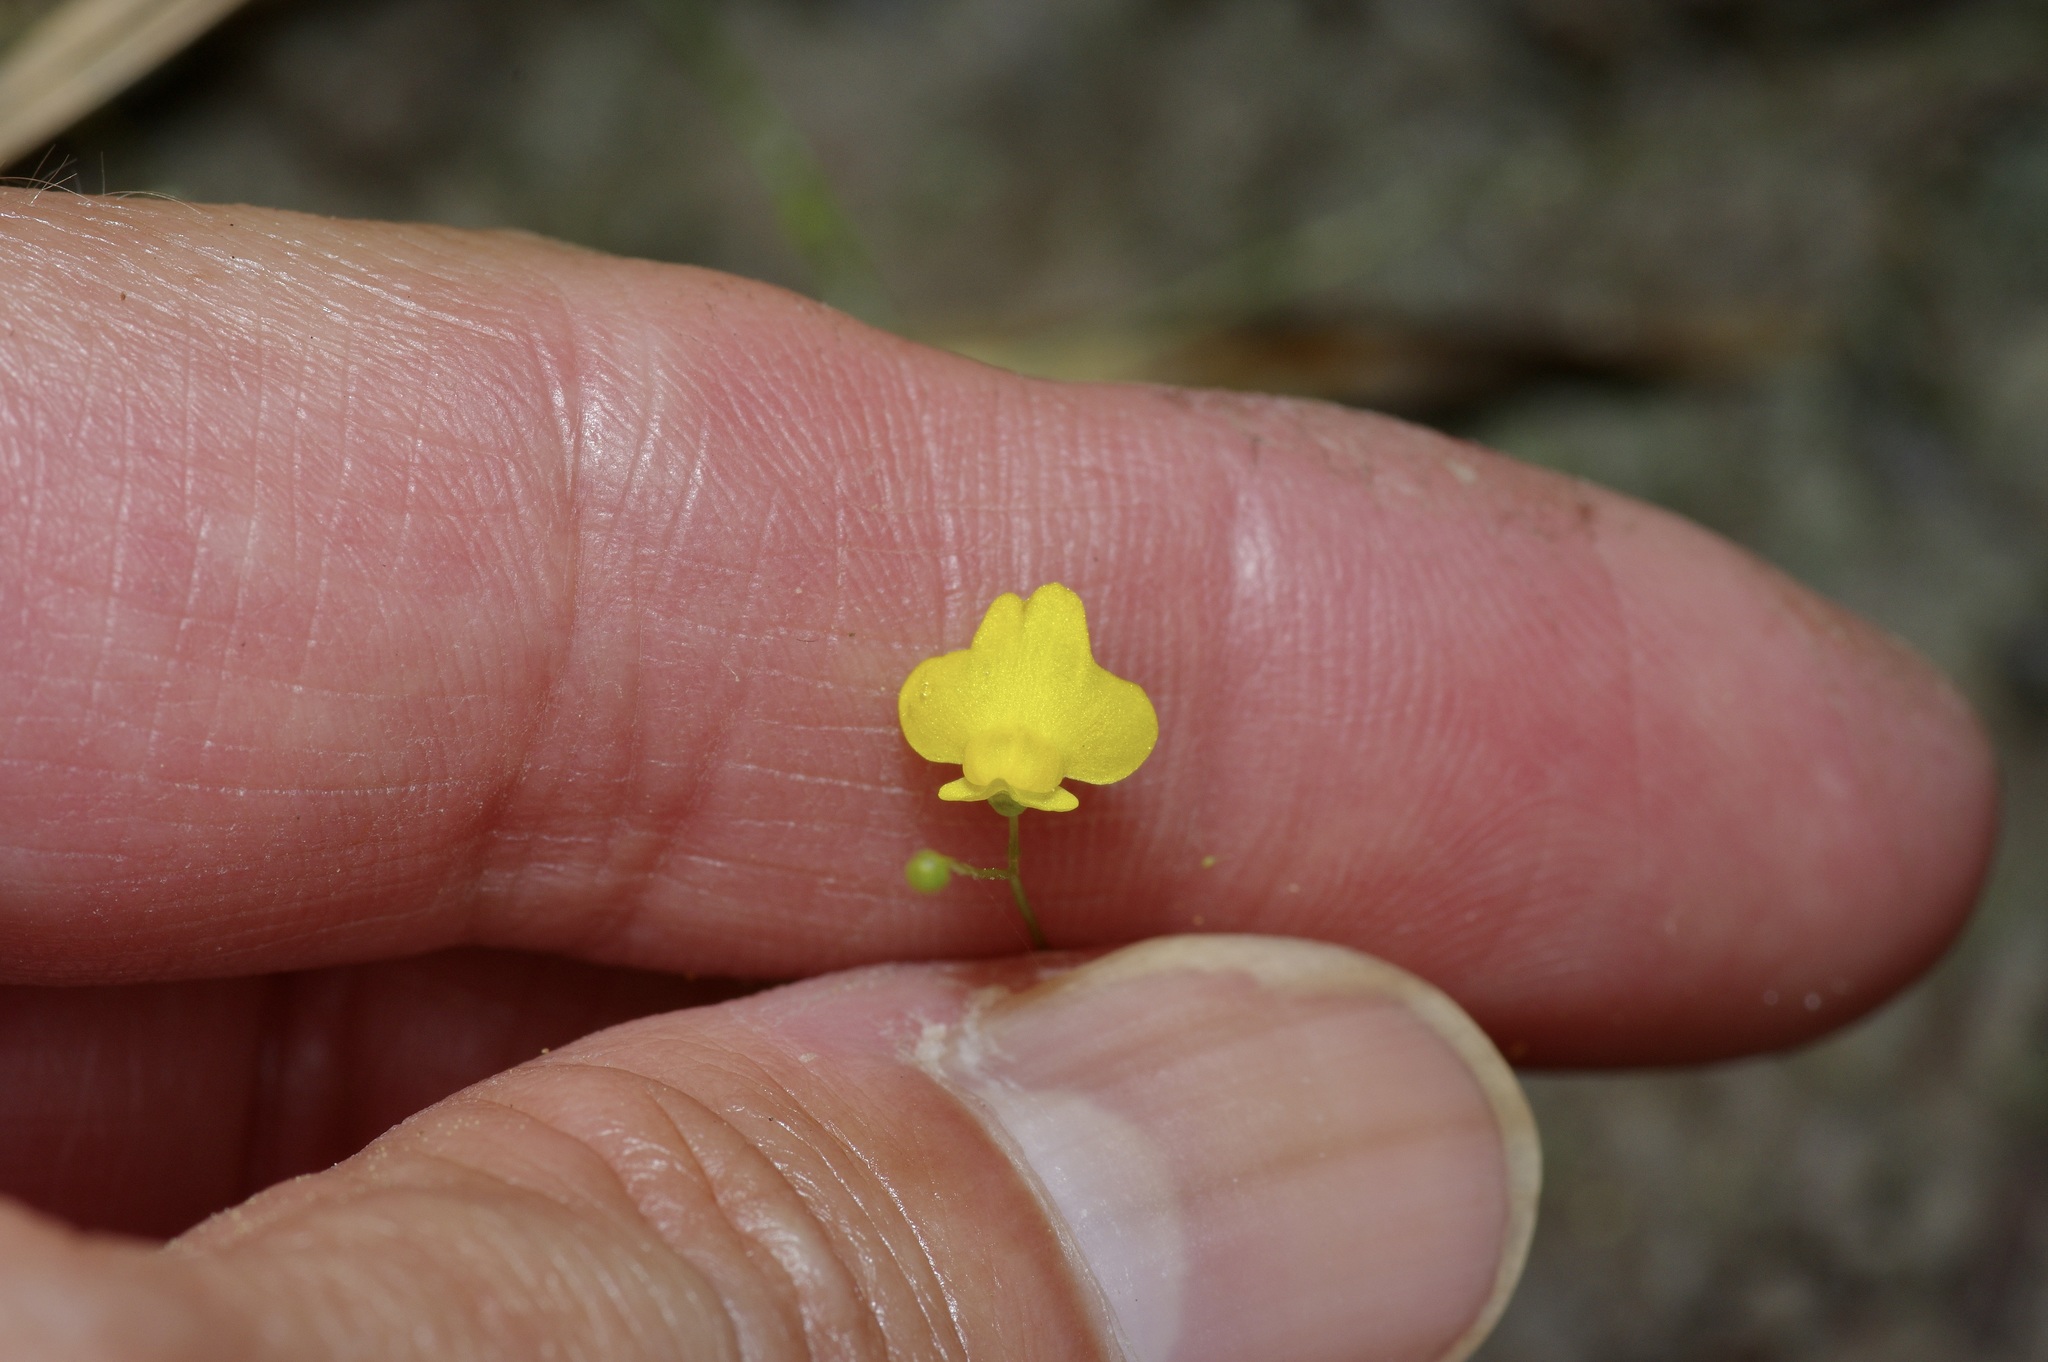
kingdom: Plantae
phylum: Tracheophyta
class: Magnoliopsida
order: Lamiales
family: Lentibulariaceae
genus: Utricularia
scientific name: Utricularia subulata
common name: Tiny bladderwort
